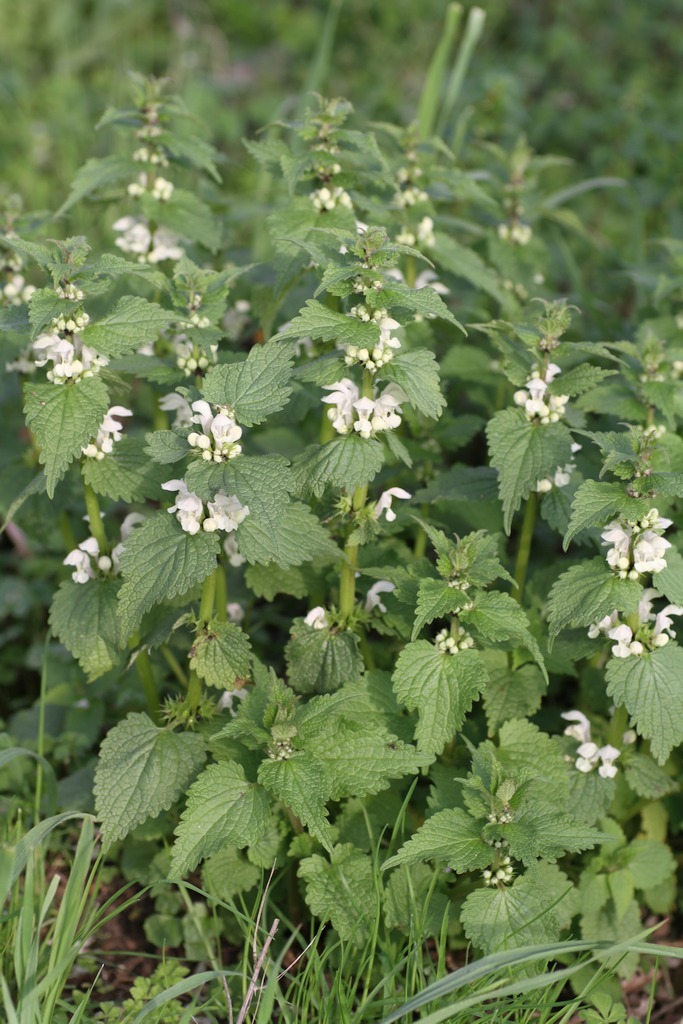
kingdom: Plantae
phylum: Tracheophyta
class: Magnoliopsida
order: Lamiales
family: Lamiaceae
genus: Lamium
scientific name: Lamium album
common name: White dead-nettle
